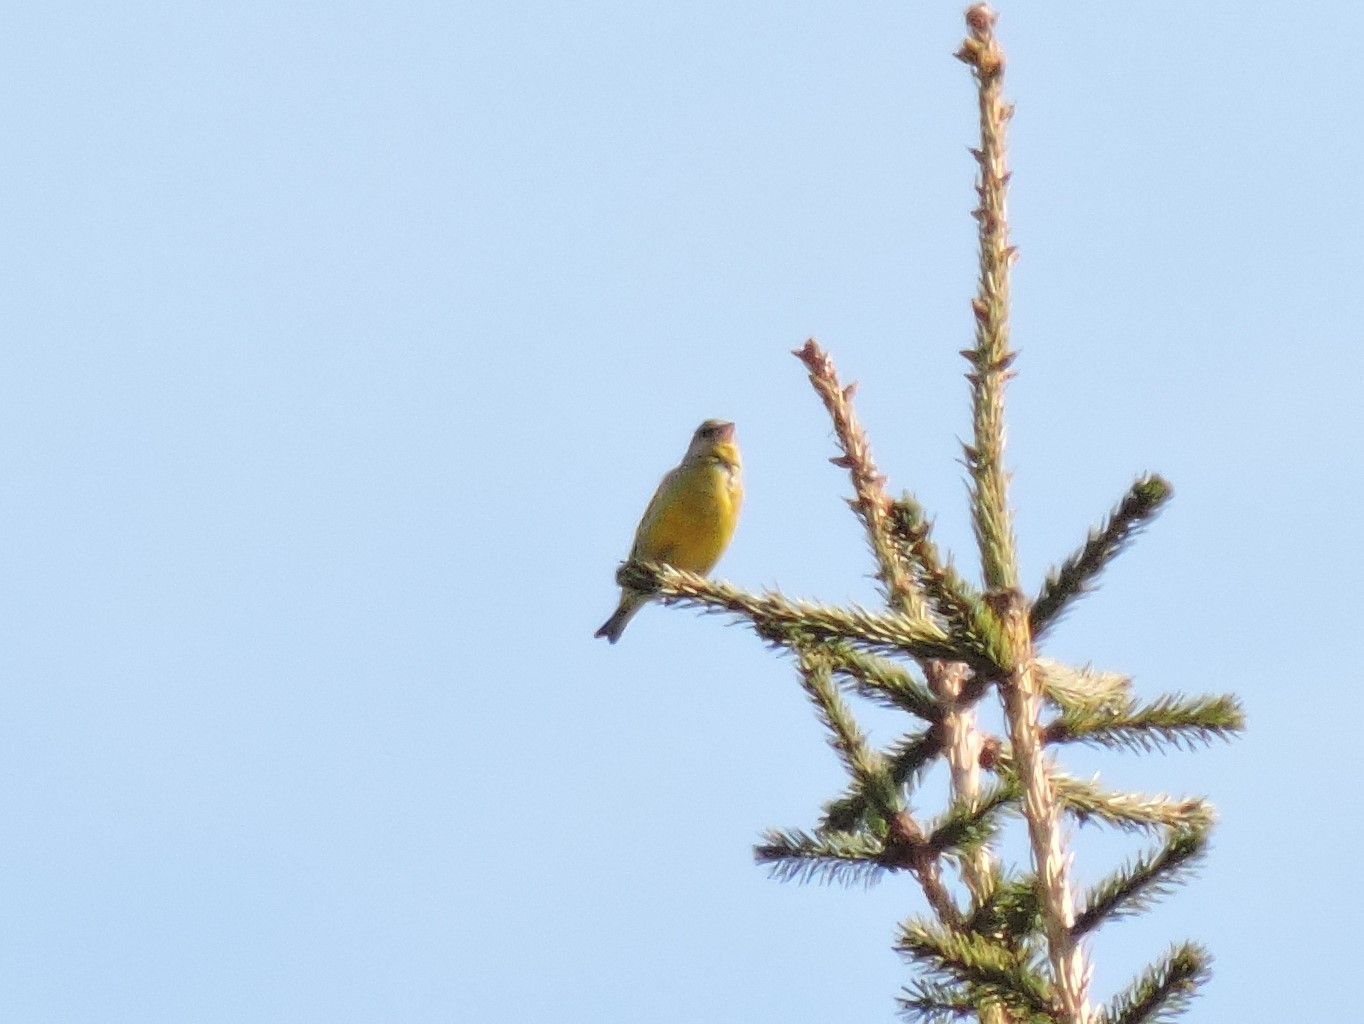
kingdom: Plantae
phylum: Tracheophyta
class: Liliopsida
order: Poales
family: Poaceae
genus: Chloris
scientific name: Chloris chloris
